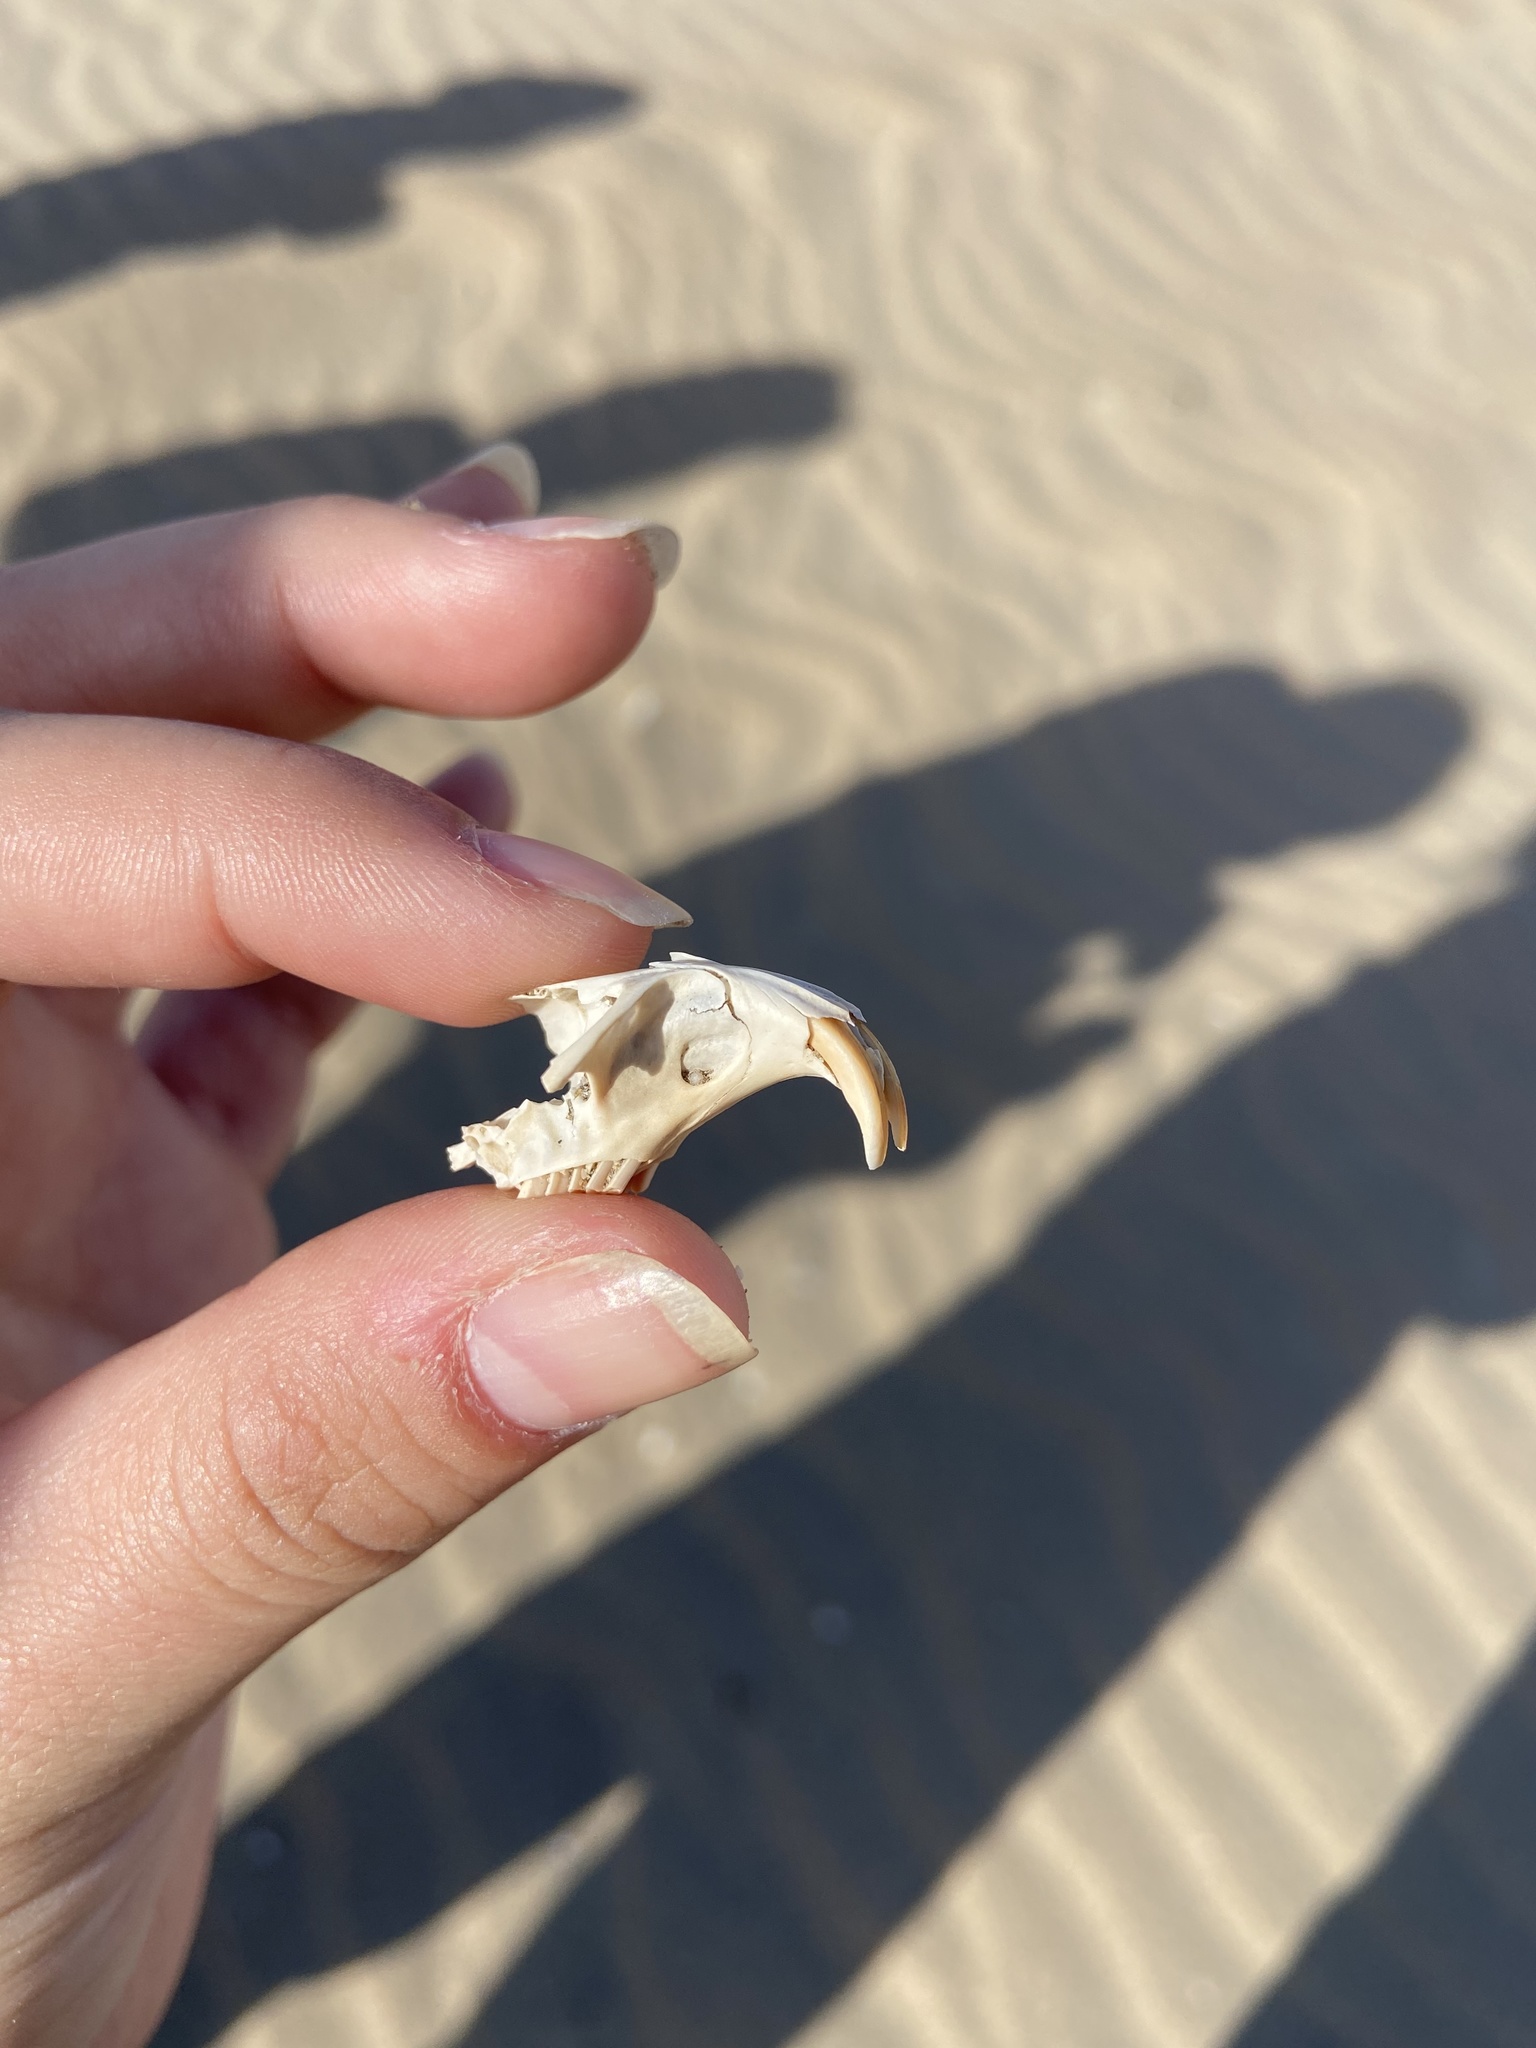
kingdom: Animalia
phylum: Chordata
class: Mammalia
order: Rodentia
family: Geomyidae
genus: Thomomys
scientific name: Thomomys bottae
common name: Botta's pocket gopher
